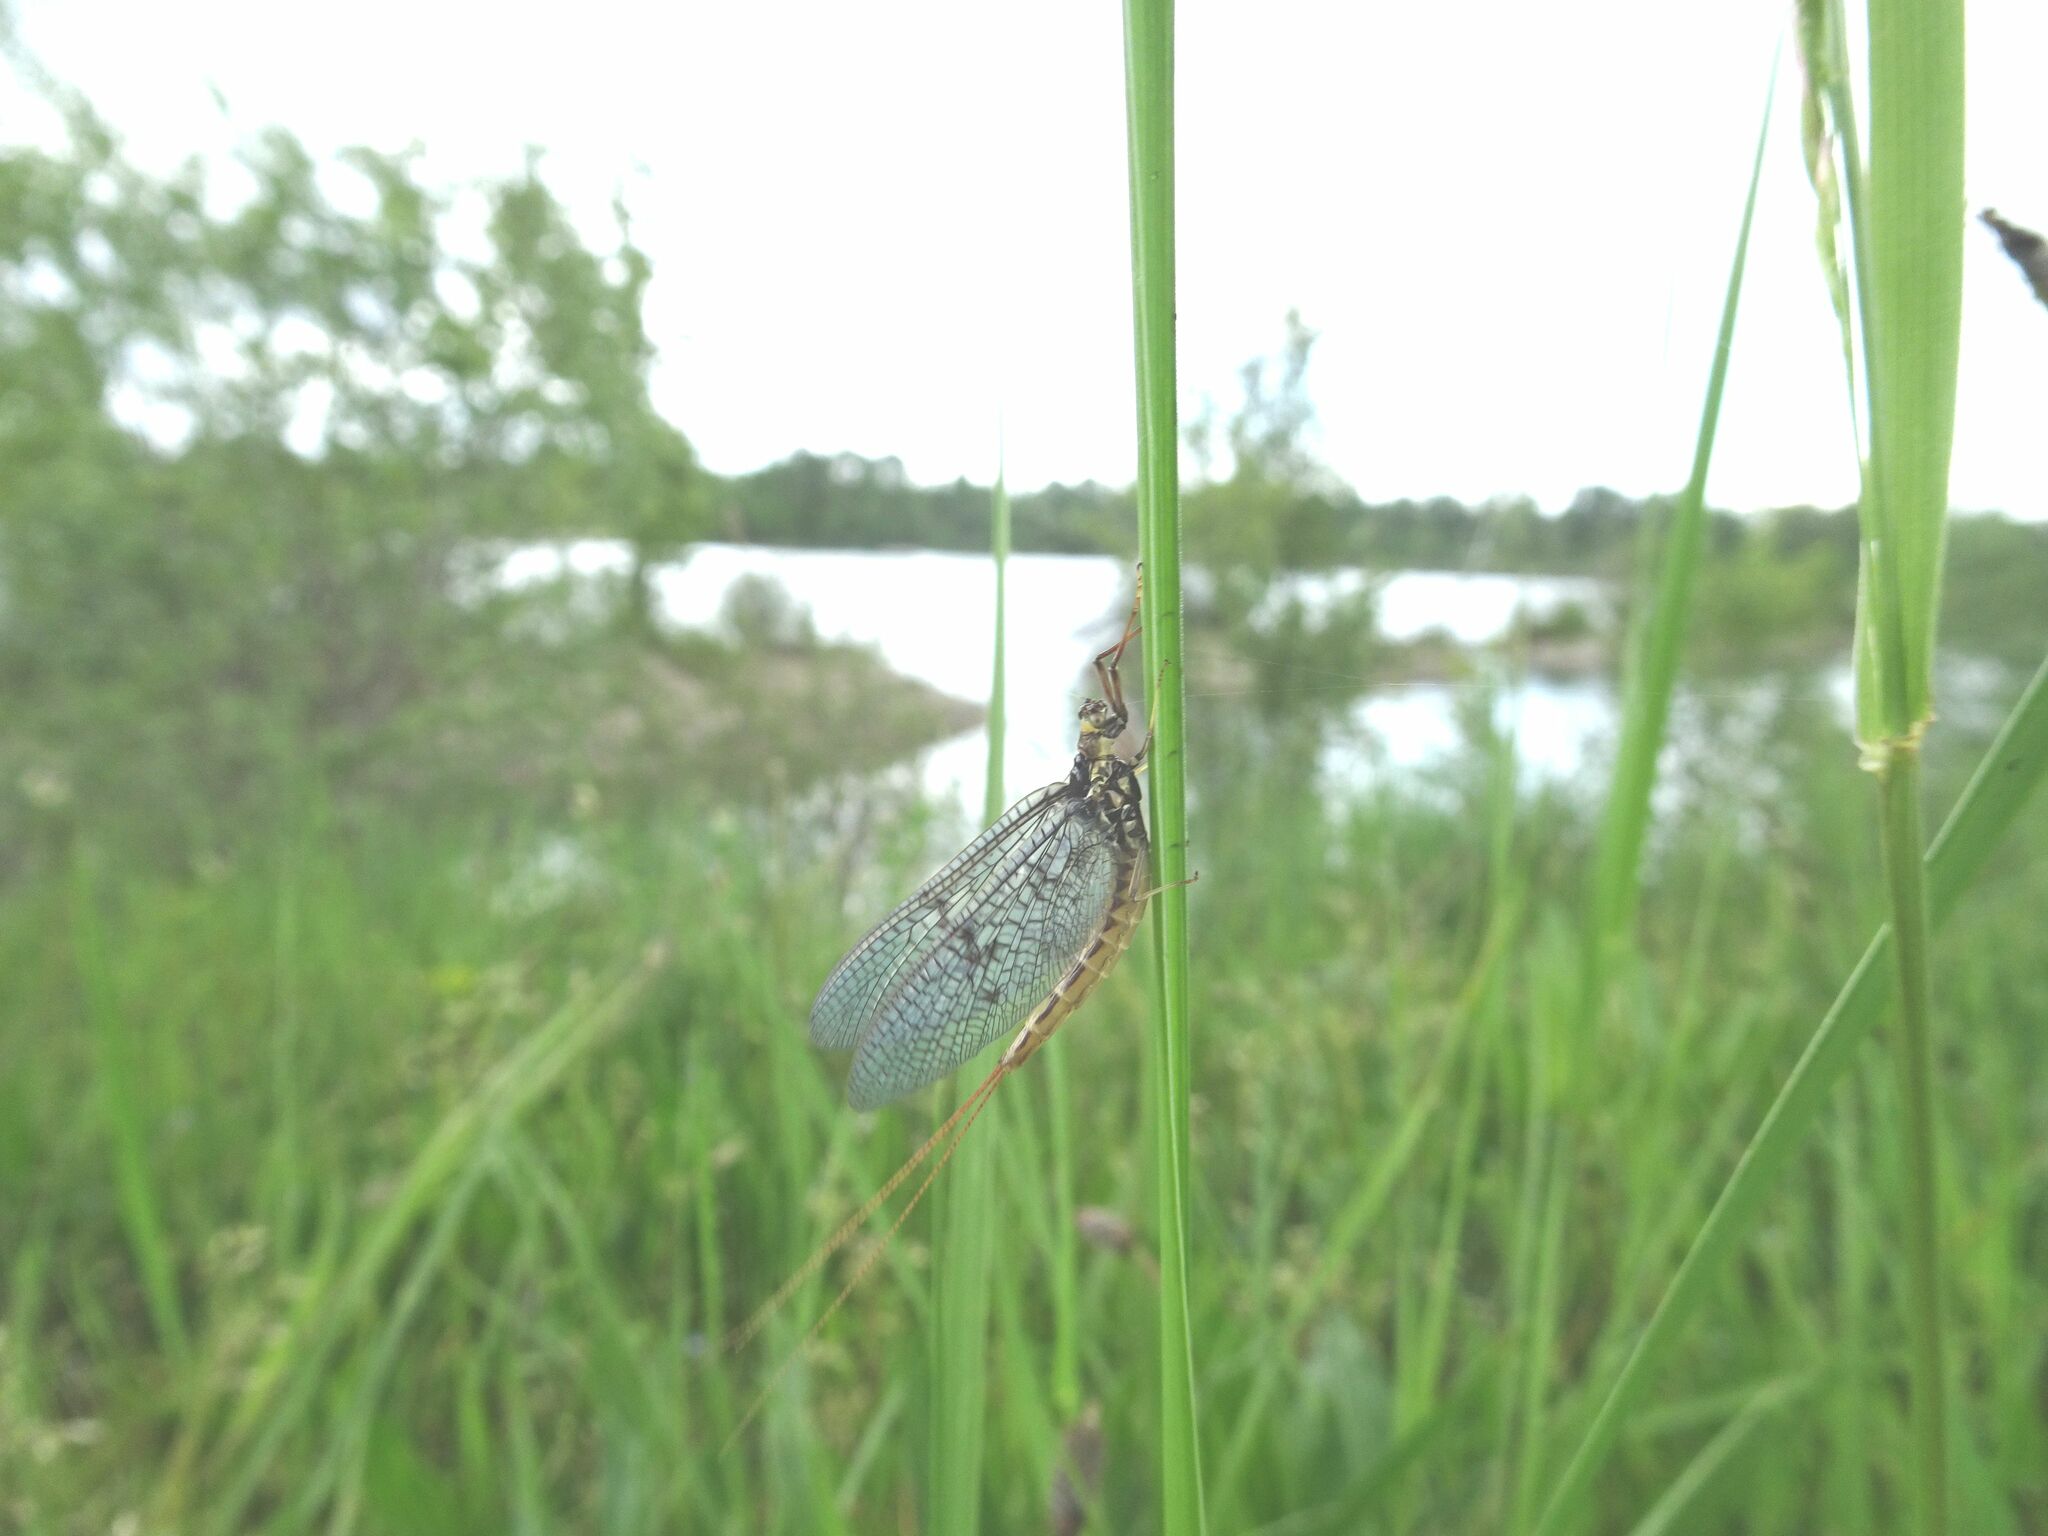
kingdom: Animalia
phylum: Arthropoda
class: Insecta
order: Ephemeroptera
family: Ephemeridae
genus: Ephemera
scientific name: Ephemera vulgata
